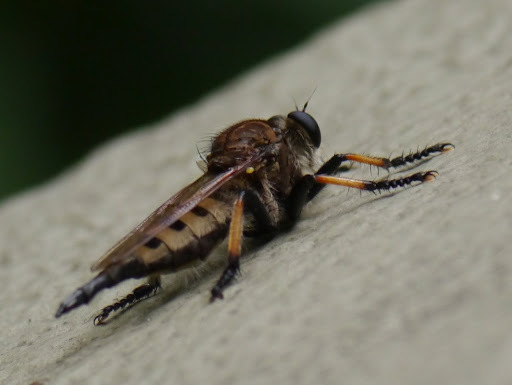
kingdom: Animalia
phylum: Arthropoda
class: Insecta
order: Diptera
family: Asilidae
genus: Promachus
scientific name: Promachus rufipes
